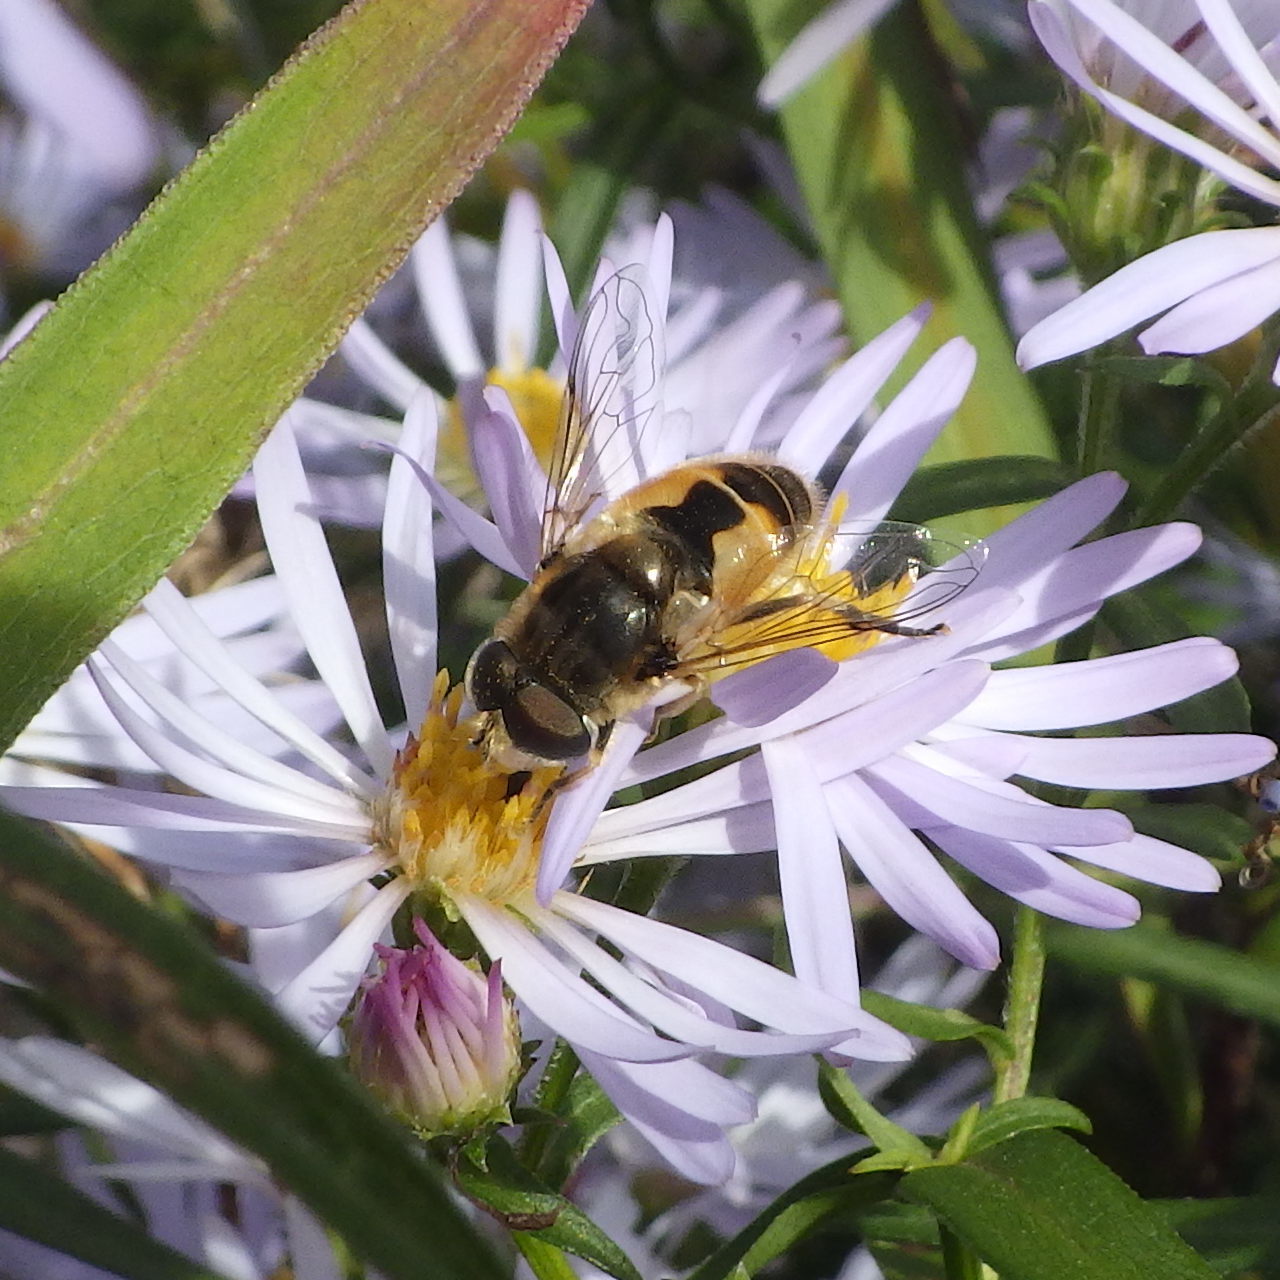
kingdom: Animalia
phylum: Arthropoda
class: Insecta
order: Diptera
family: Syrphidae
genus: Eristalis
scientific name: Eristalis arbustorum
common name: Hover fly
